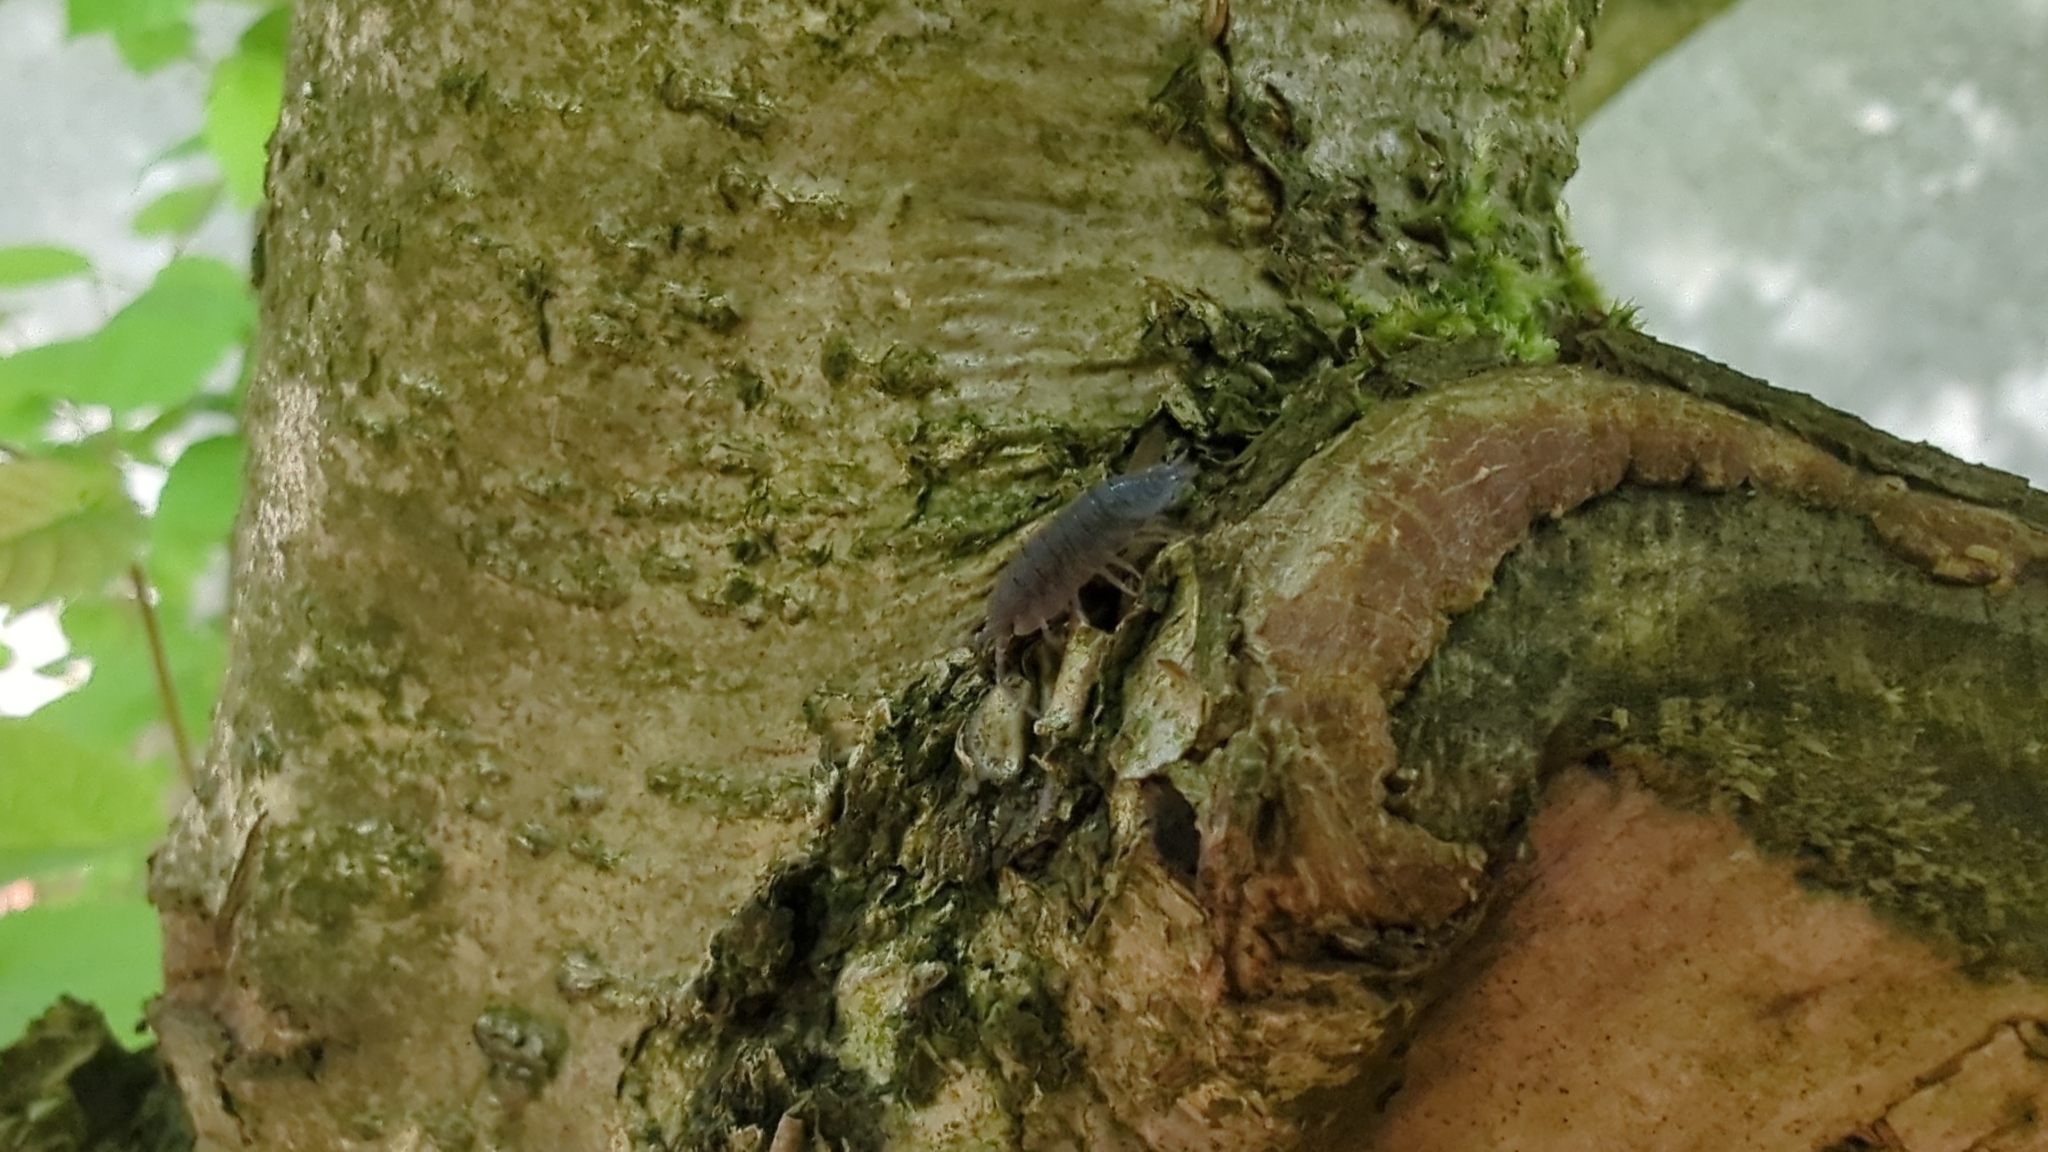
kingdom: Animalia
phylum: Arthropoda
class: Malacostraca
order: Isopoda
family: Porcellionidae
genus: Porcellio
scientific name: Porcellio scaber
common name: Common rough woodlouse
